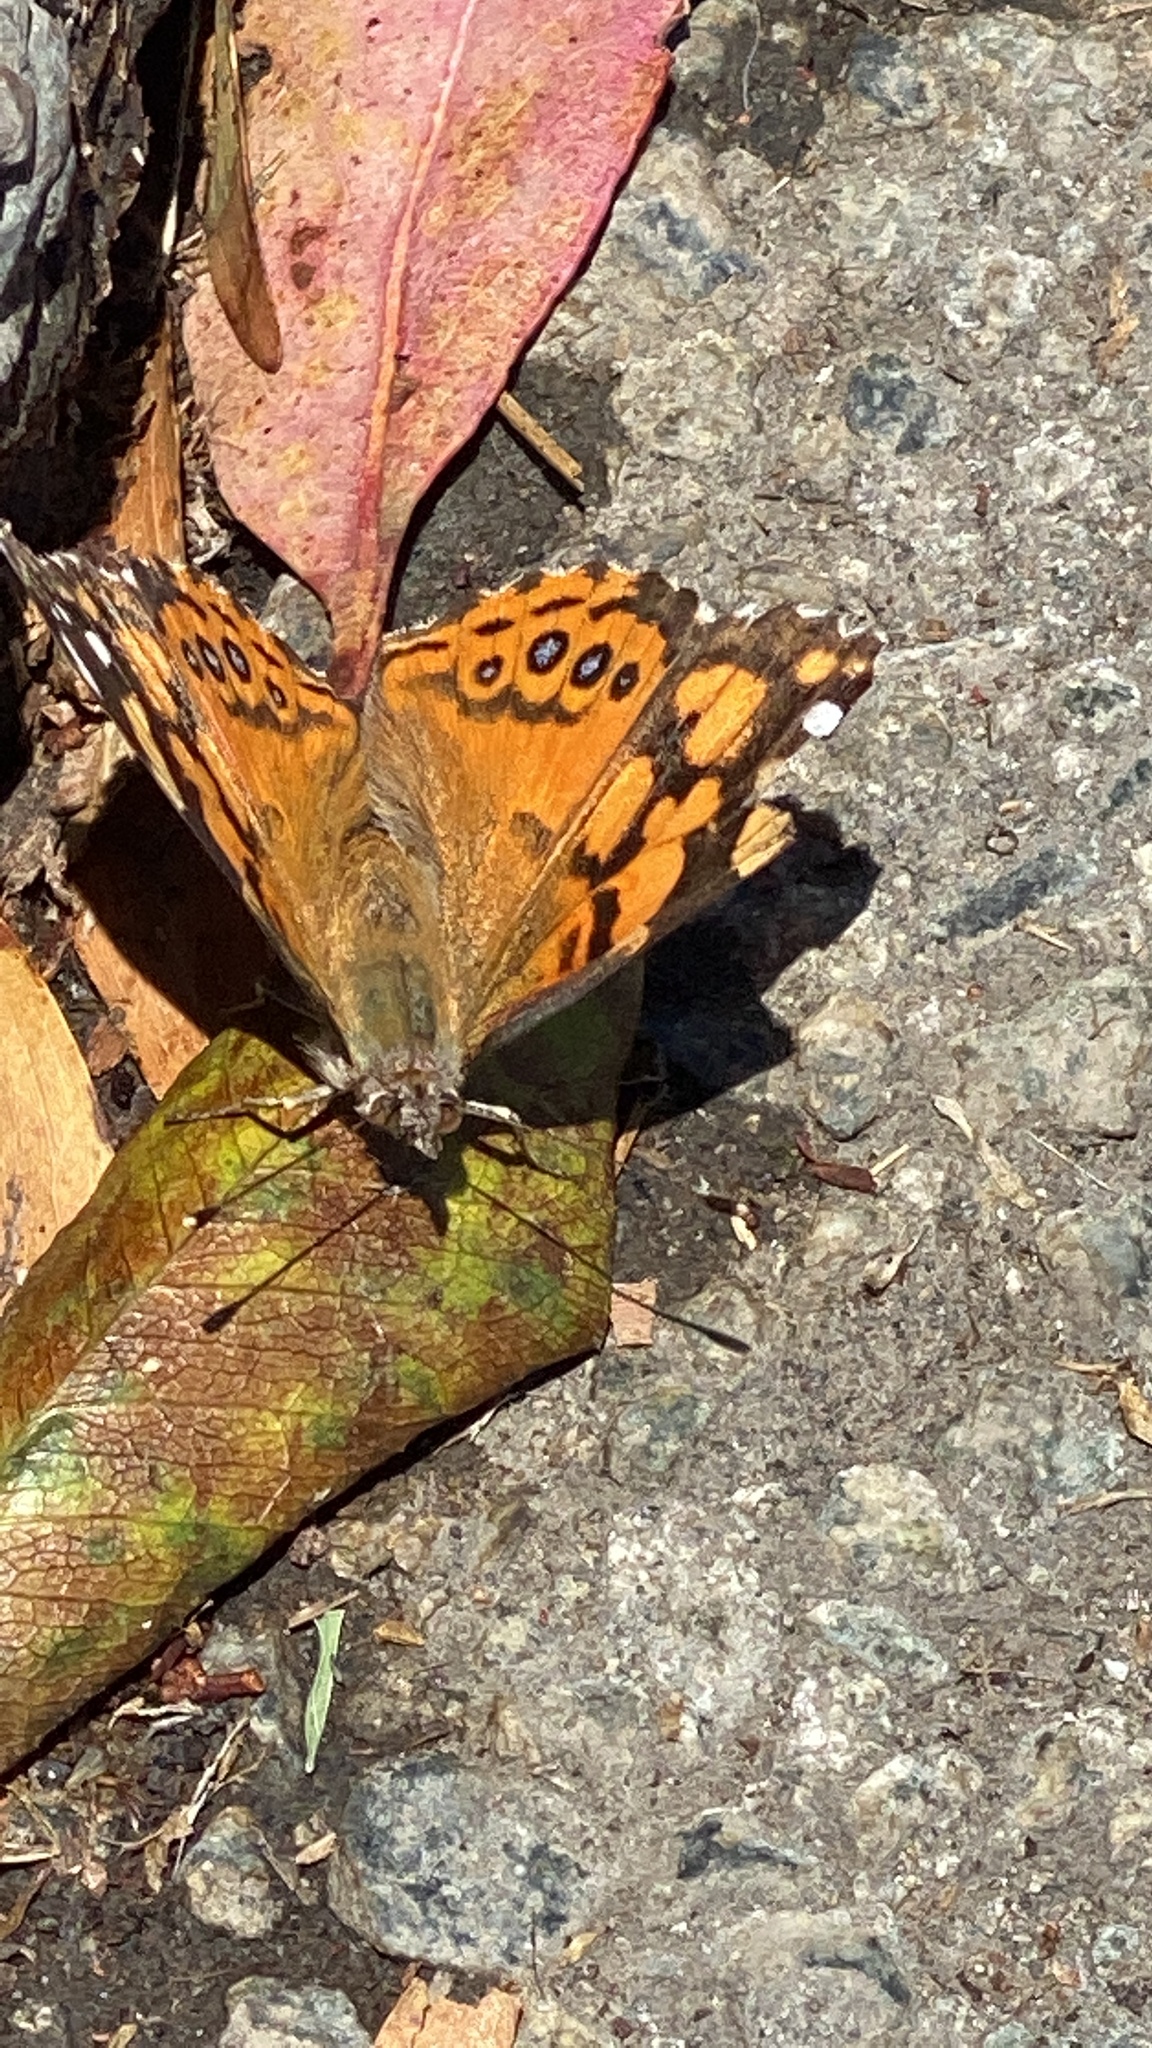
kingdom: Animalia
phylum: Arthropoda
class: Insecta
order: Lepidoptera
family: Nymphalidae
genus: Vanessa
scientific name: Vanessa annabella
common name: West coast lady
